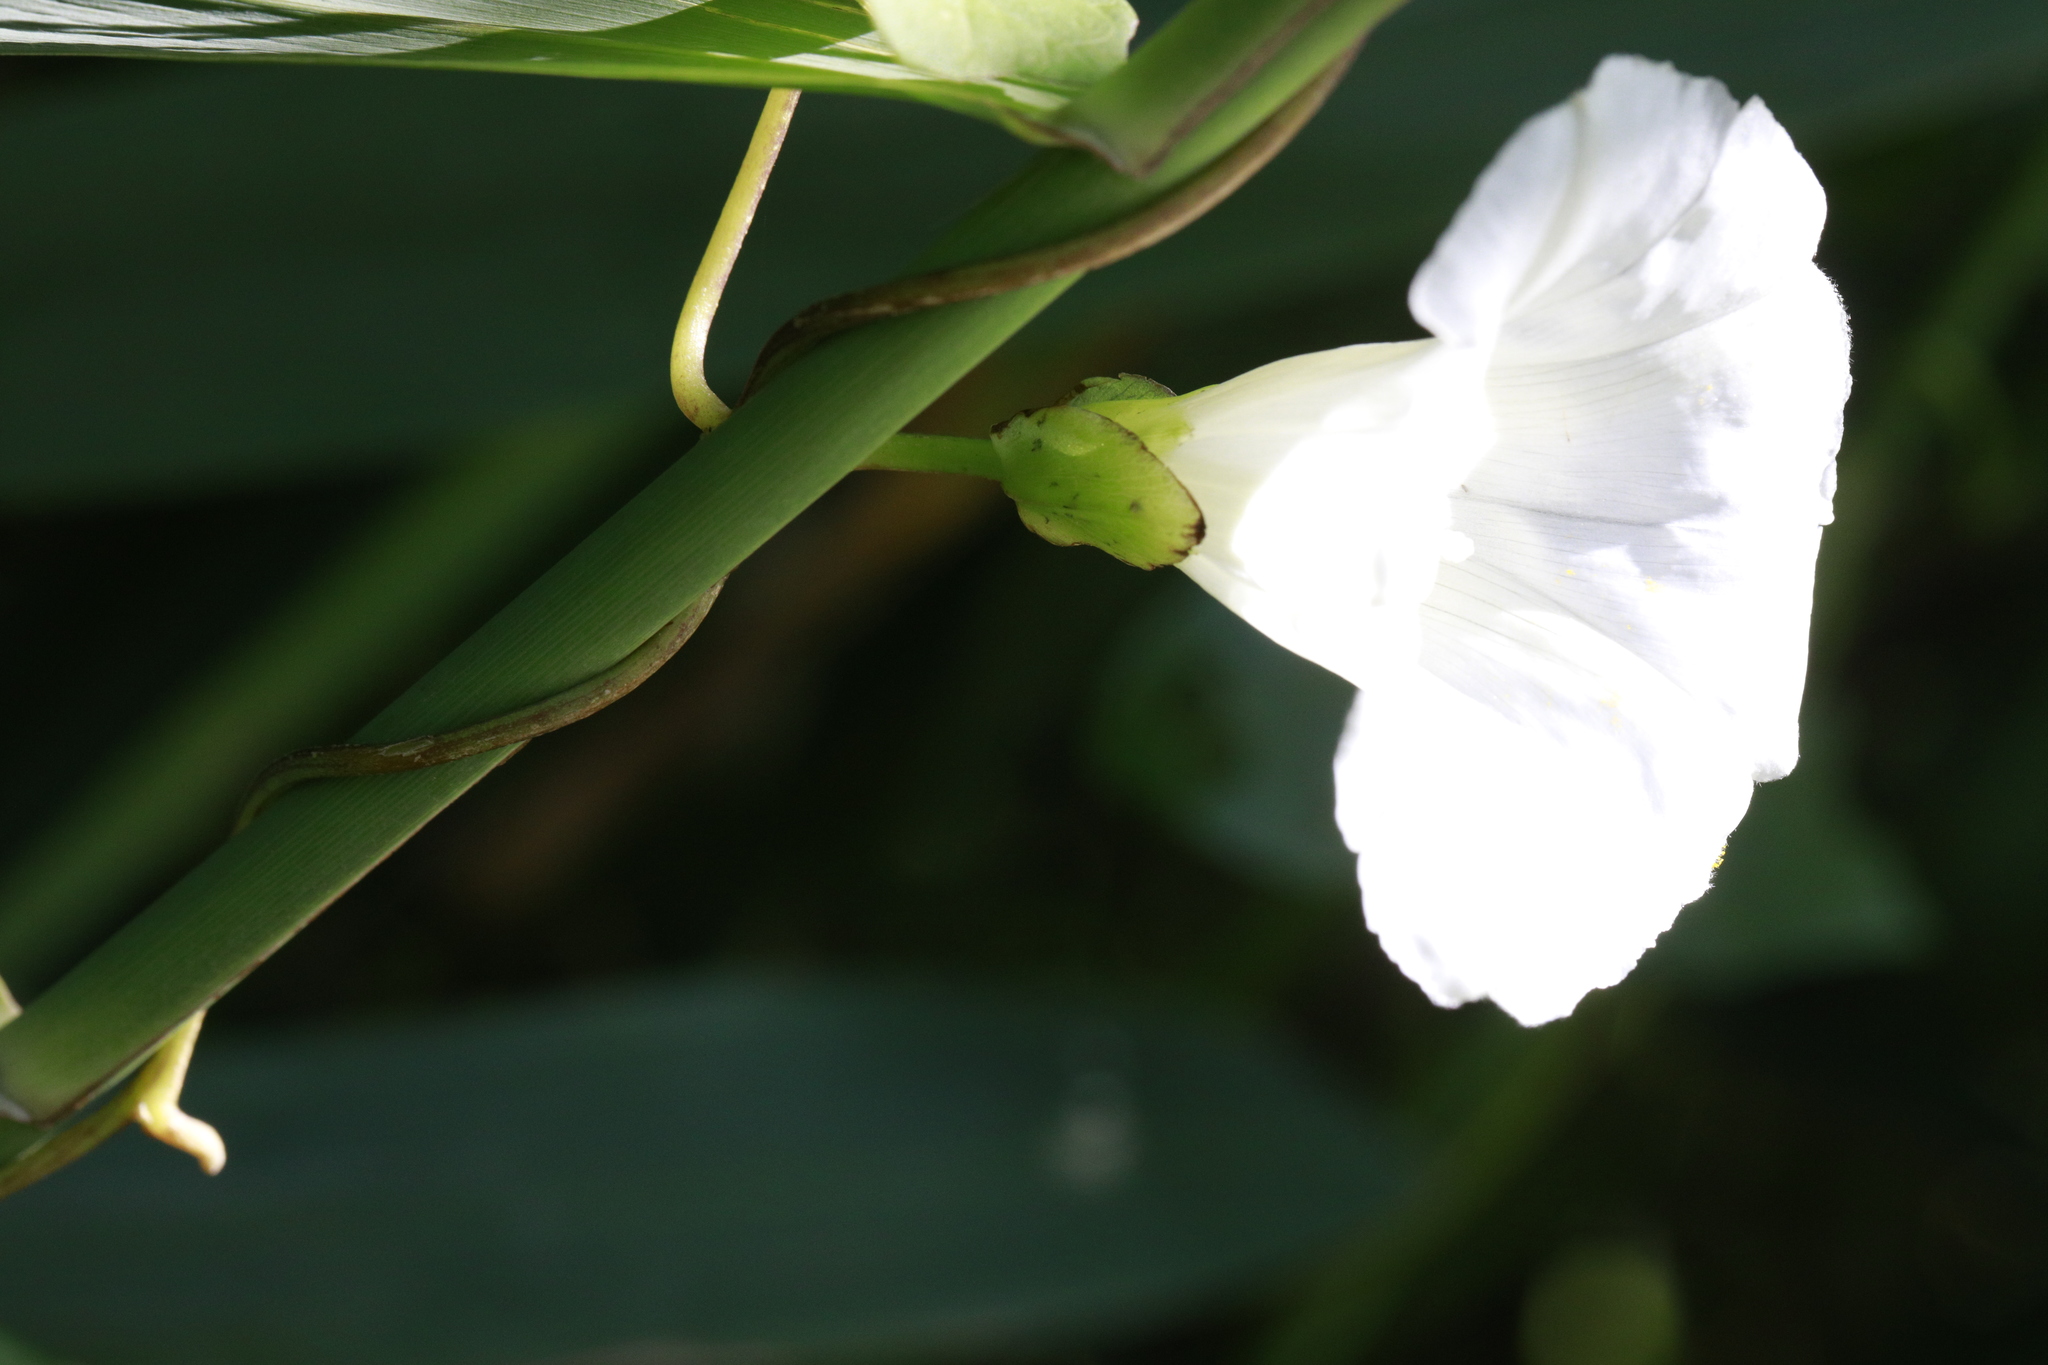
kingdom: Plantae
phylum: Tracheophyta
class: Magnoliopsida
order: Solanales
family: Convolvulaceae
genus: Calystegia
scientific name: Calystegia sepium
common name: Hedge bindweed
